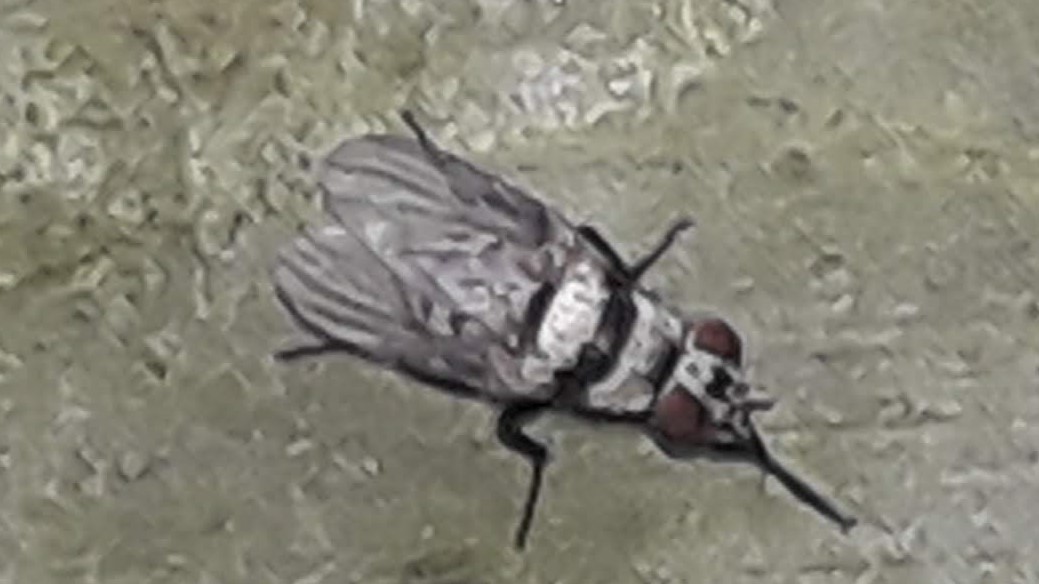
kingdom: Animalia
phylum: Arthropoda
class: Insecta
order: Diptera
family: Anthomyiidae
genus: Anthomyia
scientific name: Anthomyia illocata
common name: Fly
